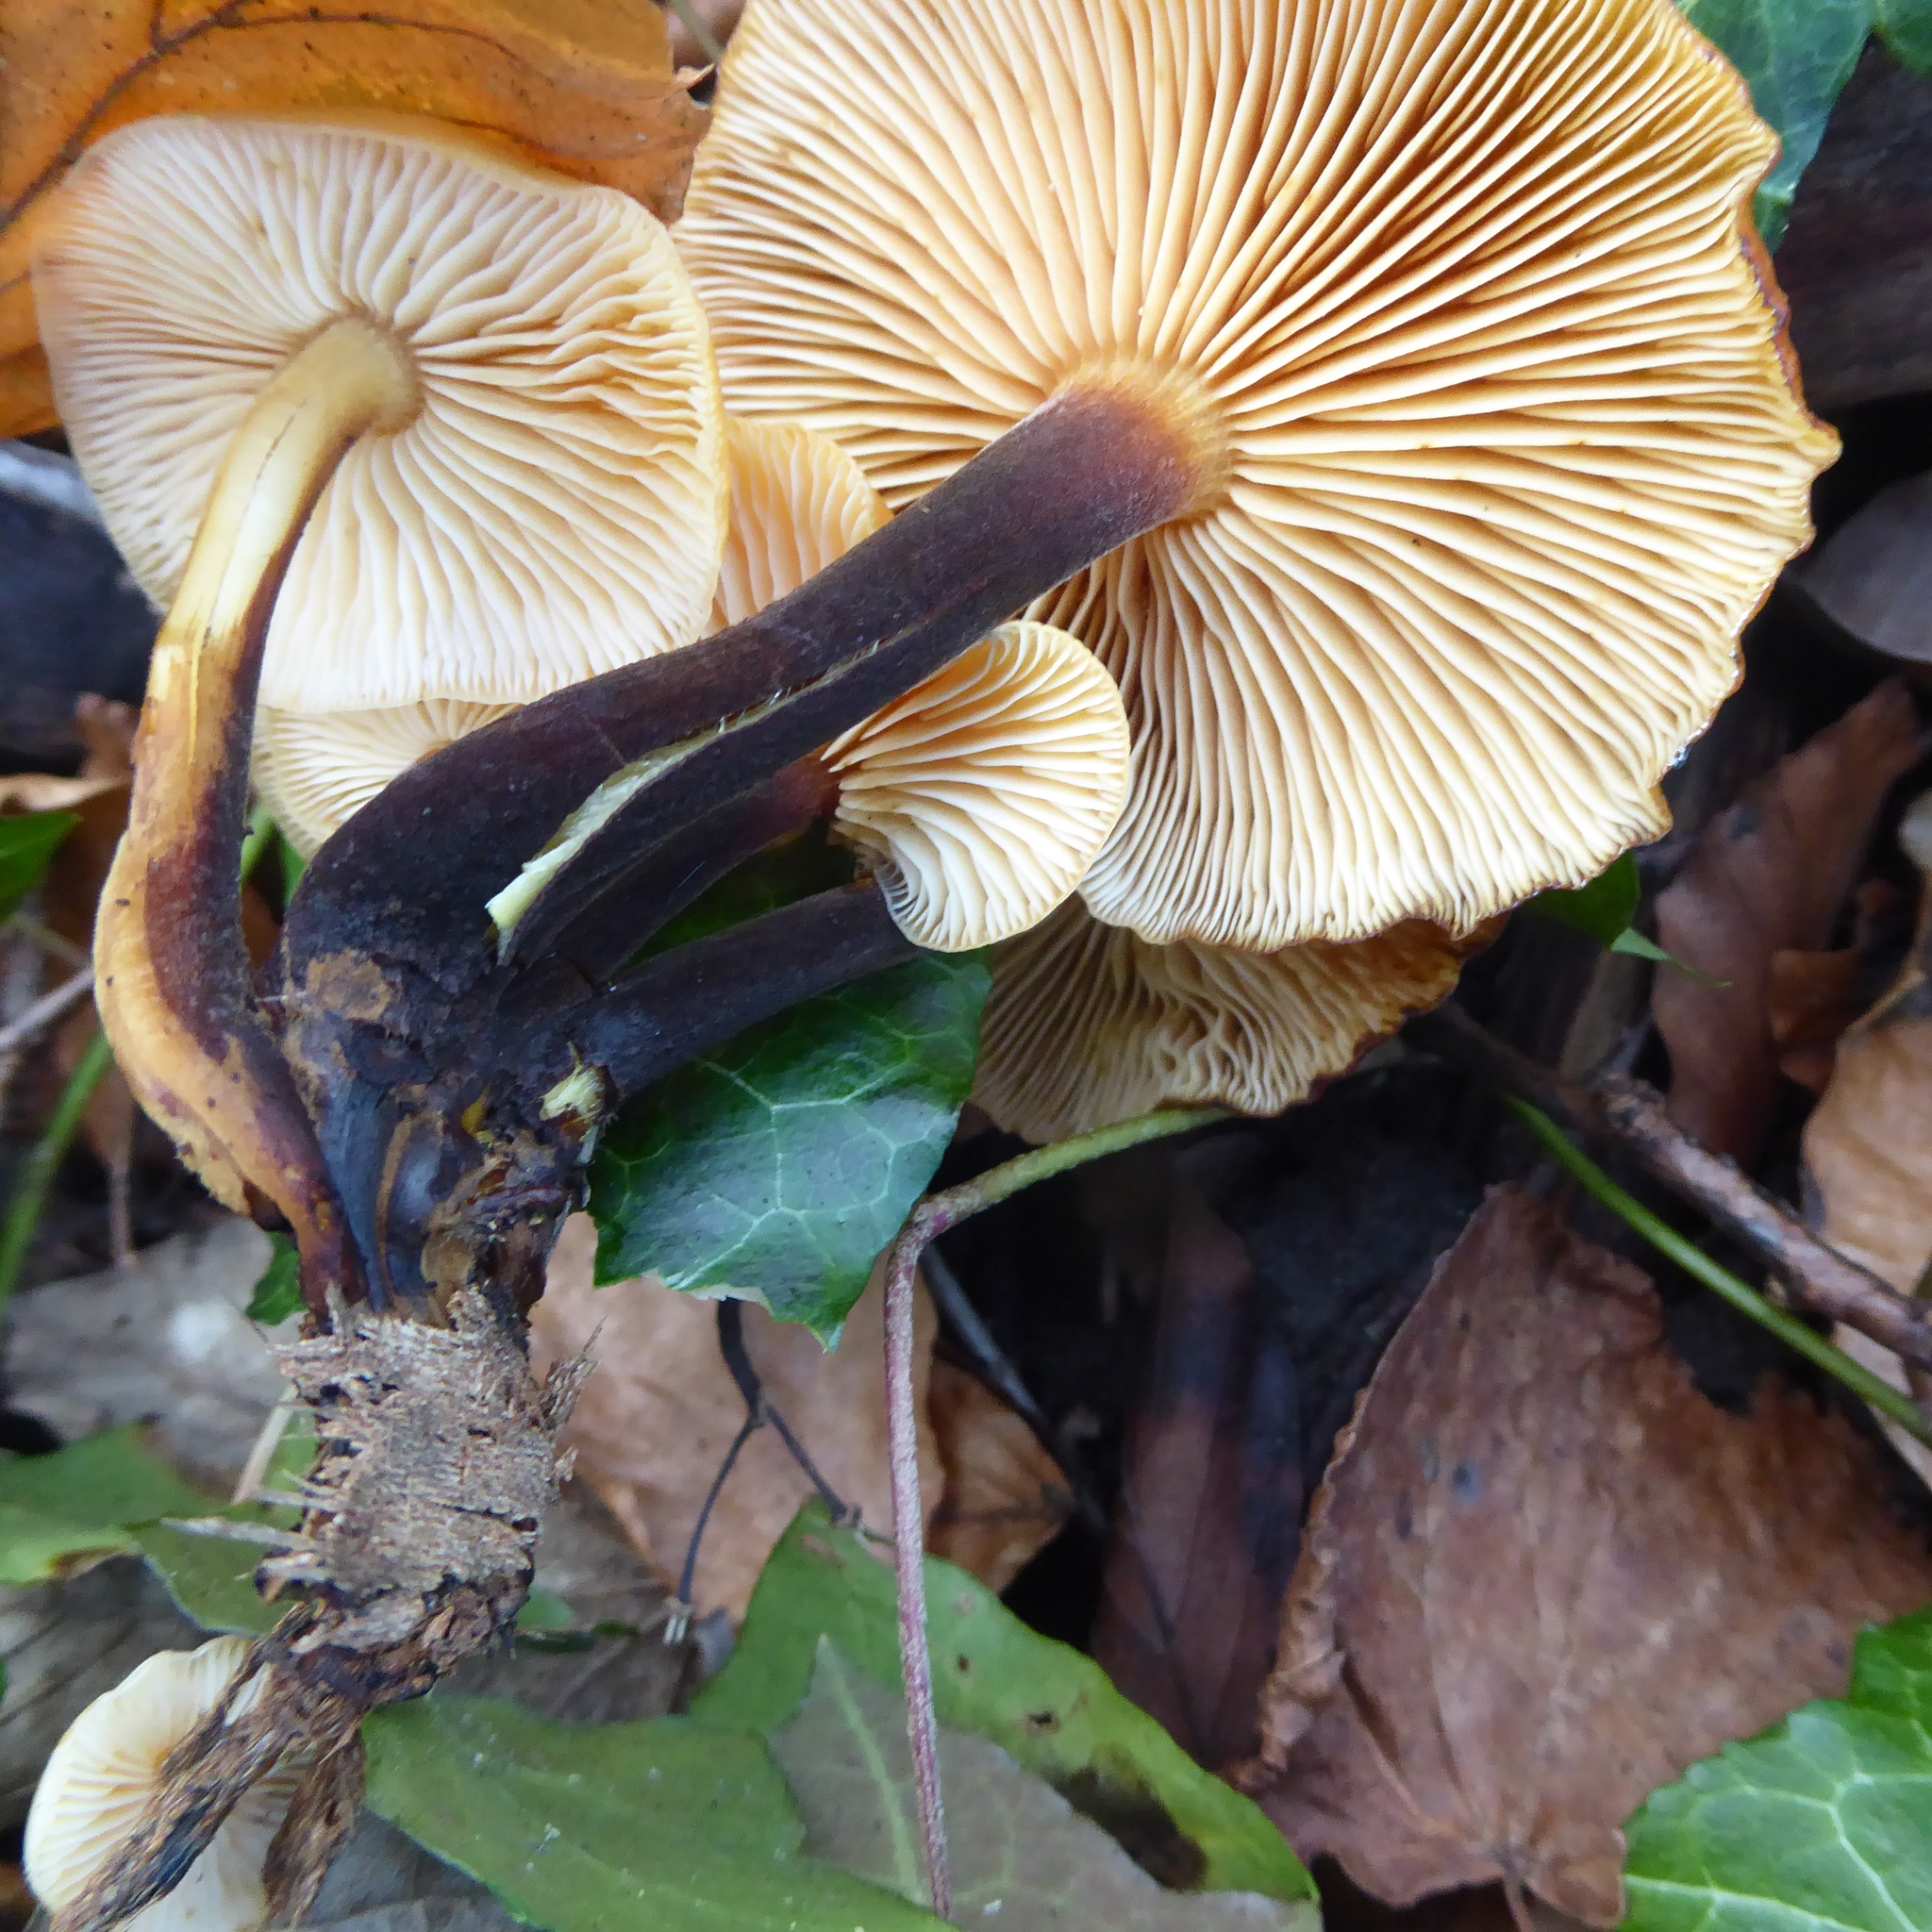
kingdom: Fungi
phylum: Basidiomycota
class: Agaricomycetes
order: Agaricales
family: Physalacriaceae
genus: Flammulina
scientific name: Flammulina
